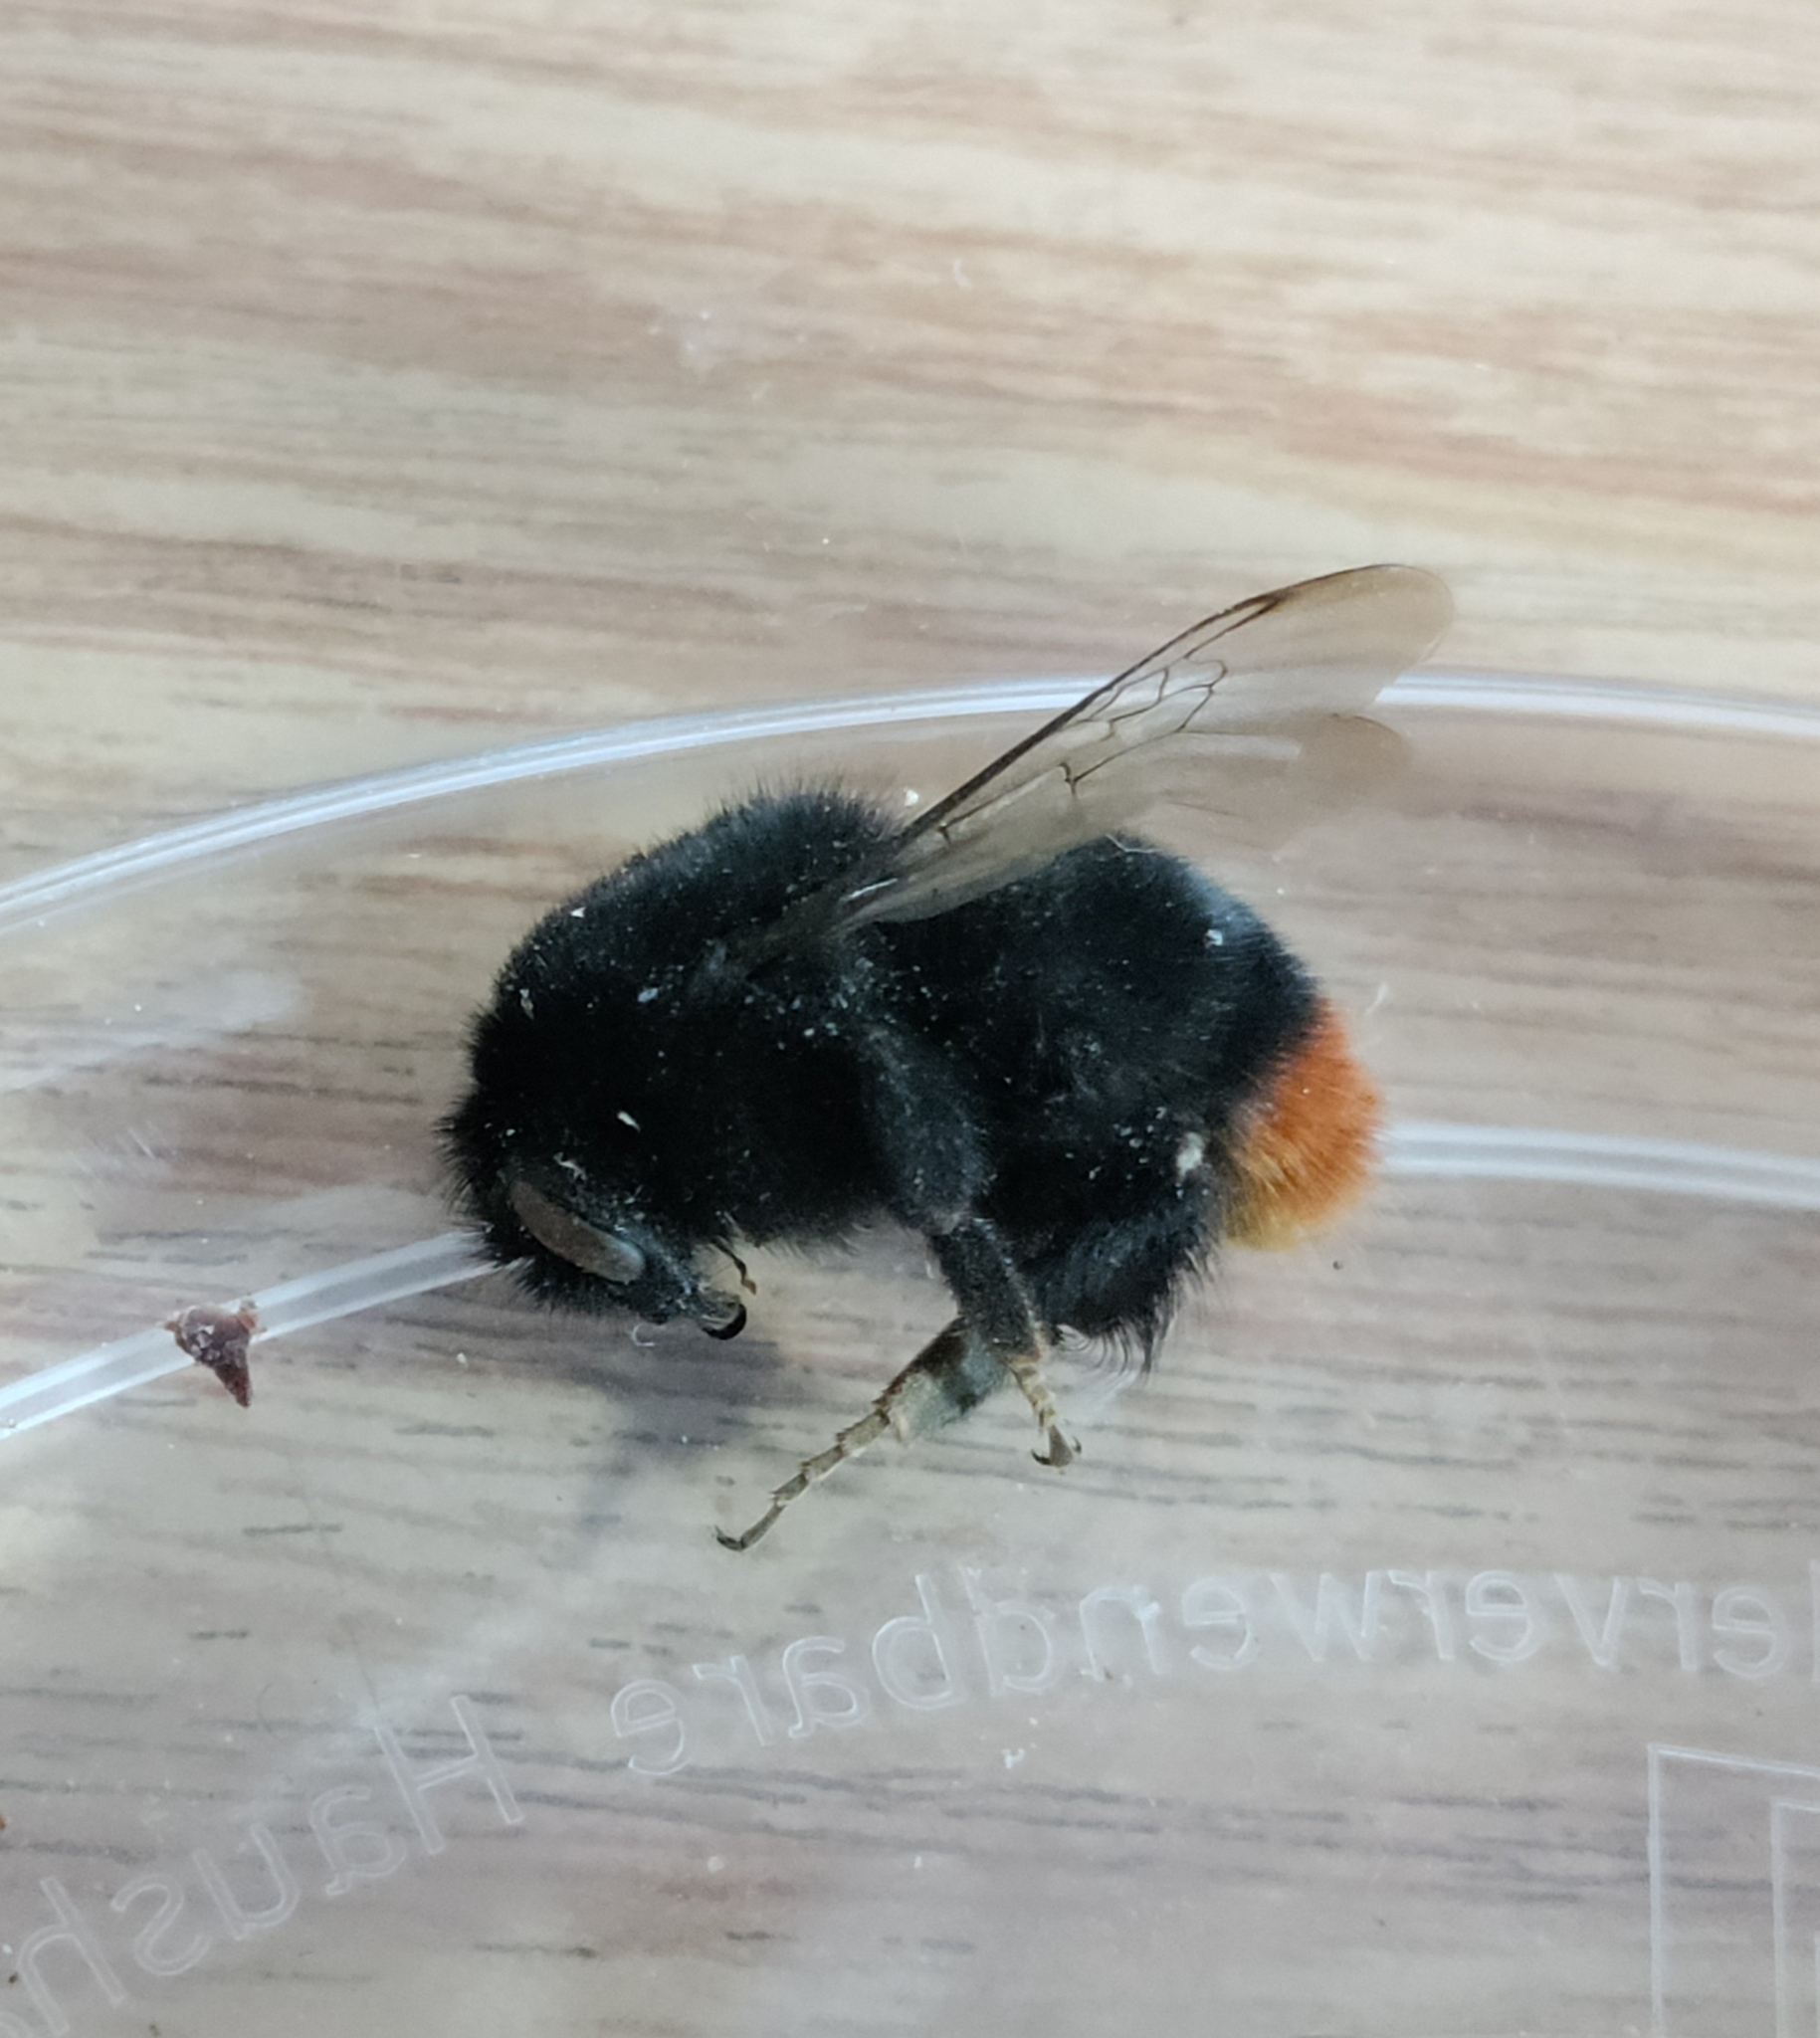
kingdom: Animalia
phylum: Arthropoda
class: Insecta
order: Hymenoptera
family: Apidae
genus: Bombus
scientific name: Bombus lapidarius
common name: Large red-tailed humble-bee
